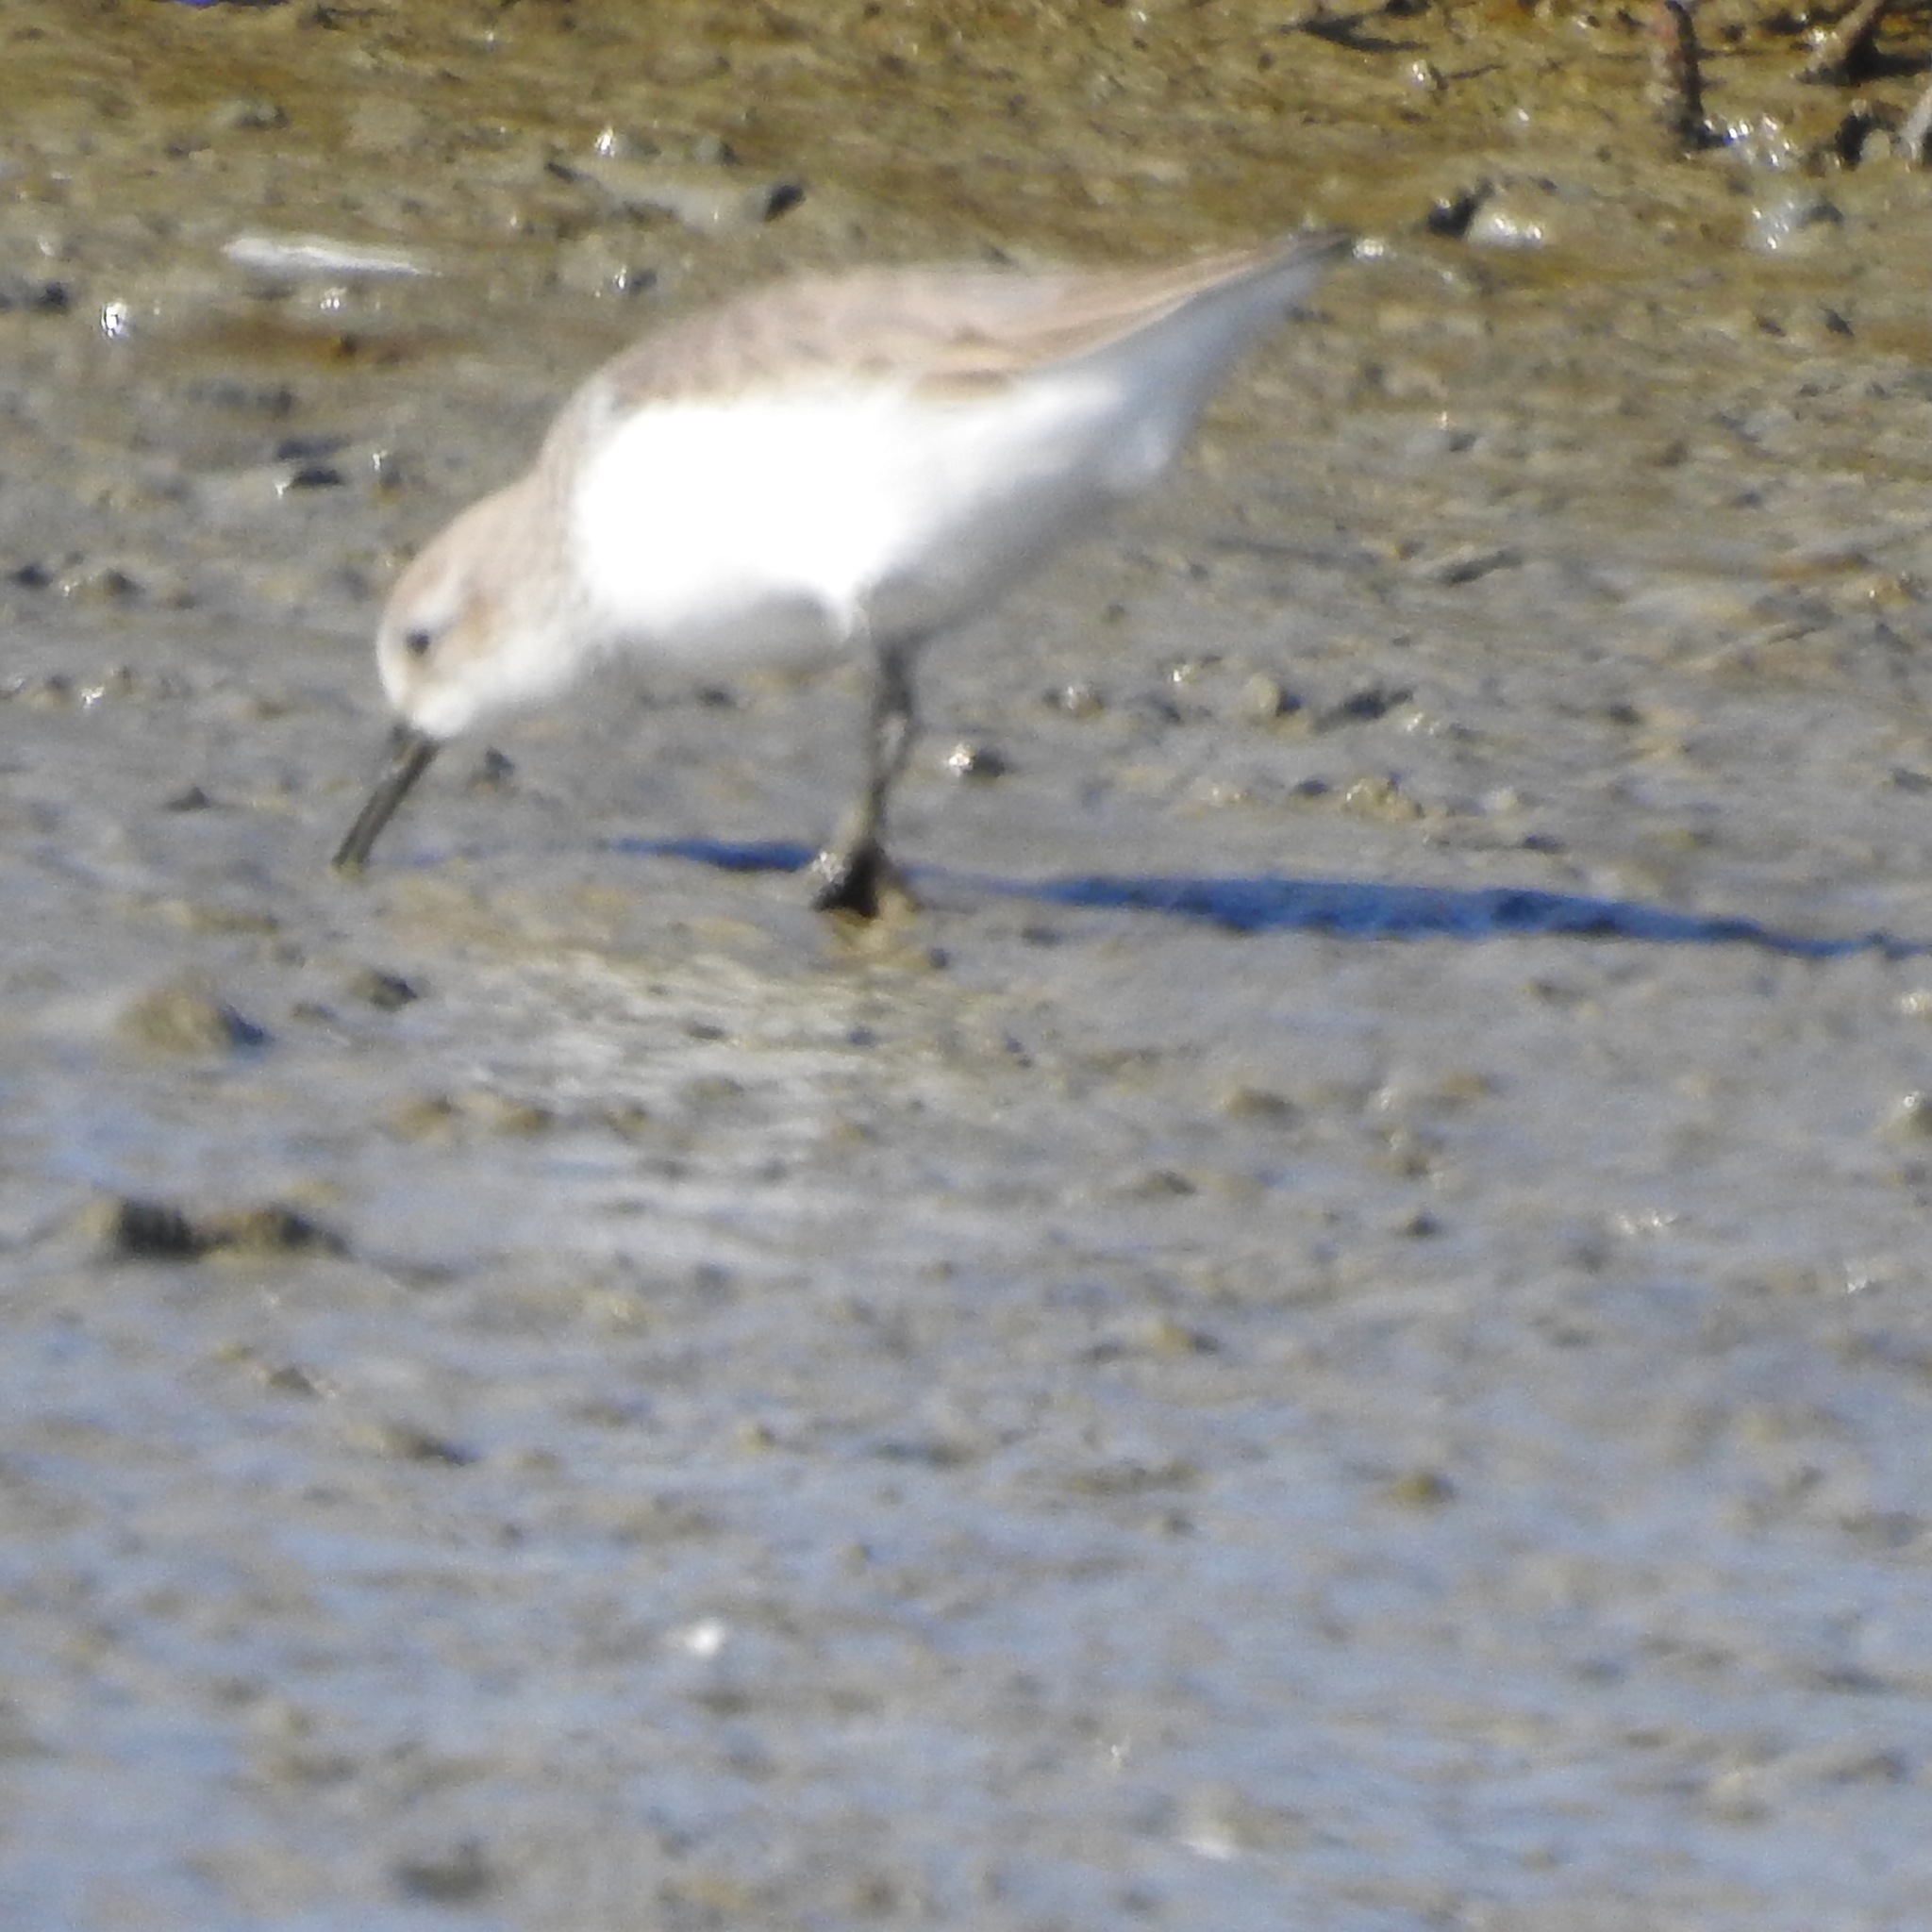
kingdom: Animalia
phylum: Chordata
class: Aves
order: Charadriiformes
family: Scolopacidae
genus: Calidris
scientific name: Calidris mauri
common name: Western sandpiper
